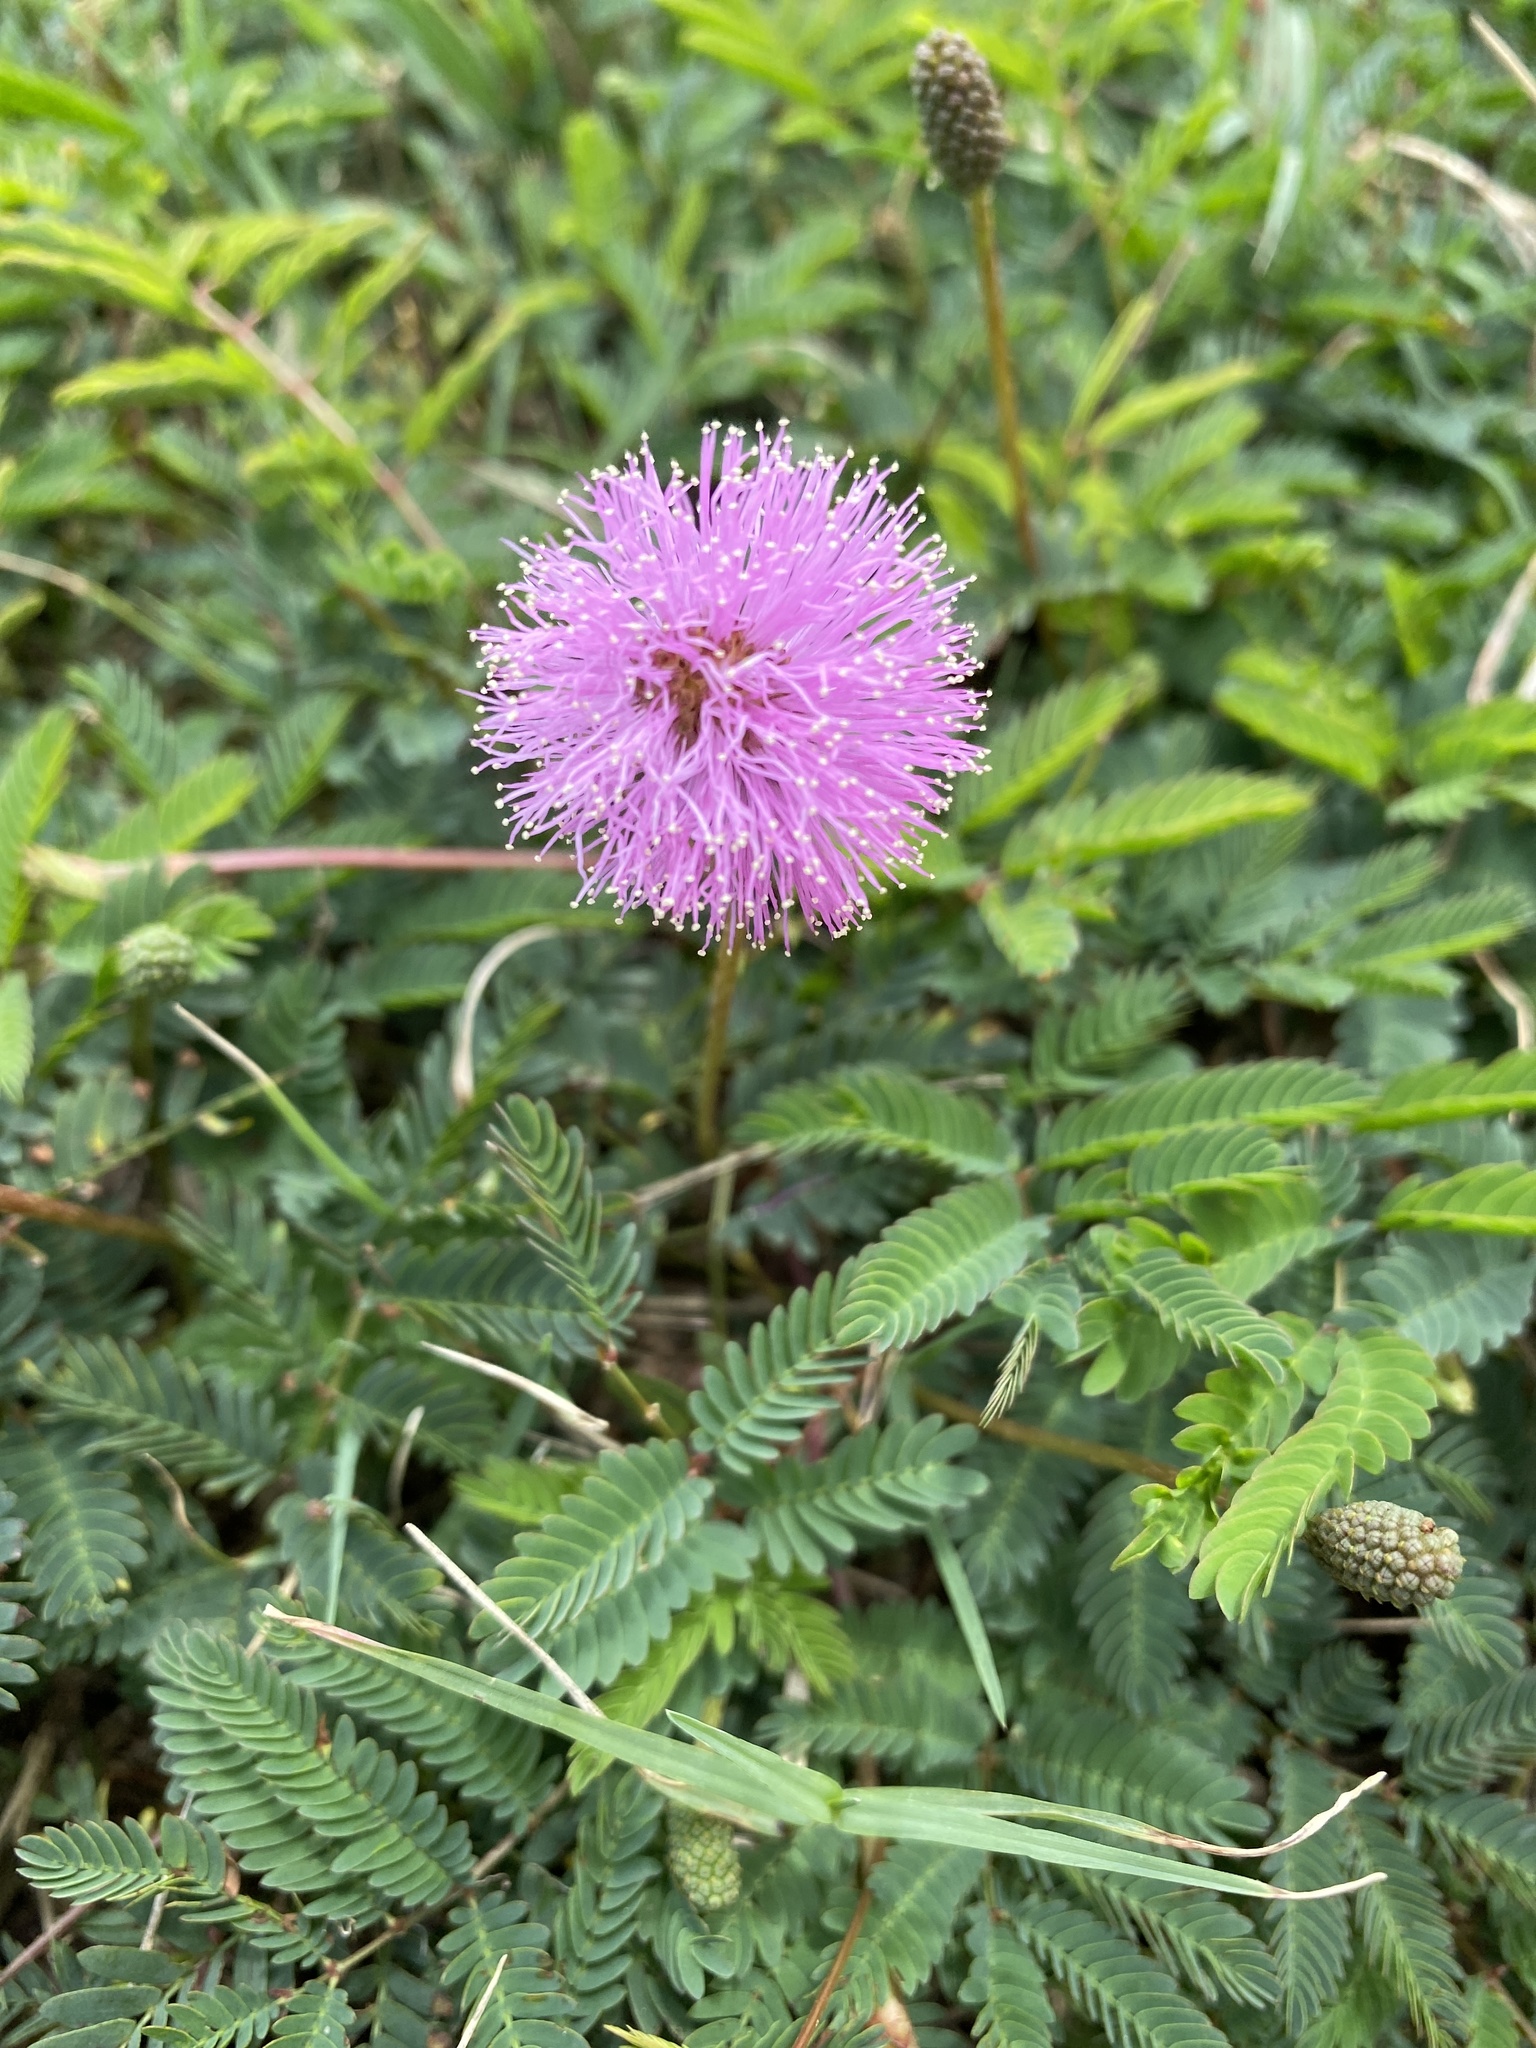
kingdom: Plantae
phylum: Tracheophyta
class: Magnoliopsida
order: Fabales
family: Fabaceae
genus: Mimosa
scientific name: Mimosa strigillosa
